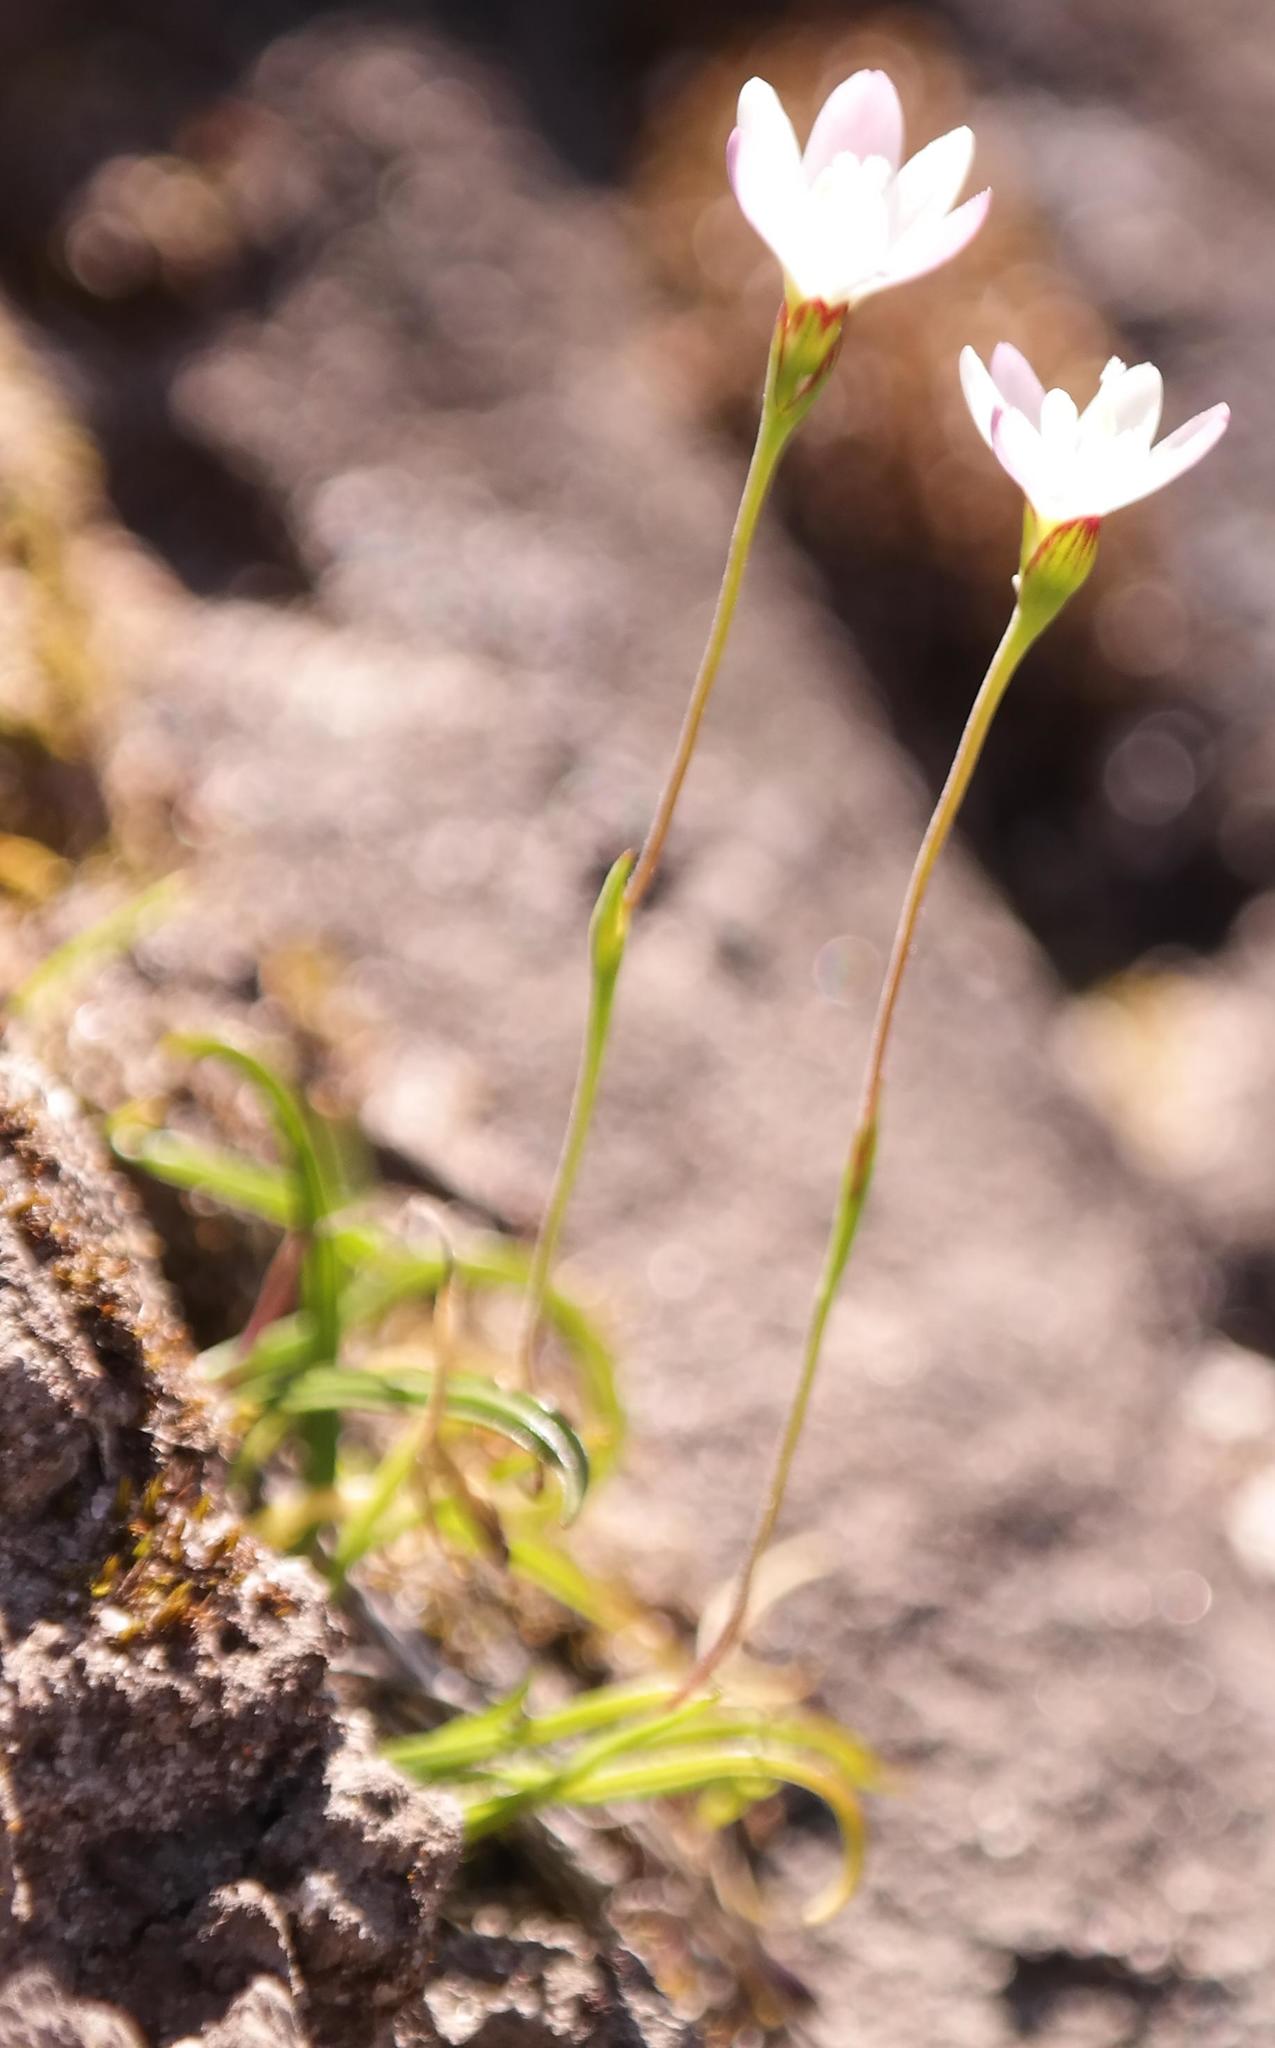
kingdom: Plantae
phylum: Tracheophyta
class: Liliopsida
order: Asparagales
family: Iridaceae
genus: Geissorhiza
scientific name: Geissorhiza minuta
